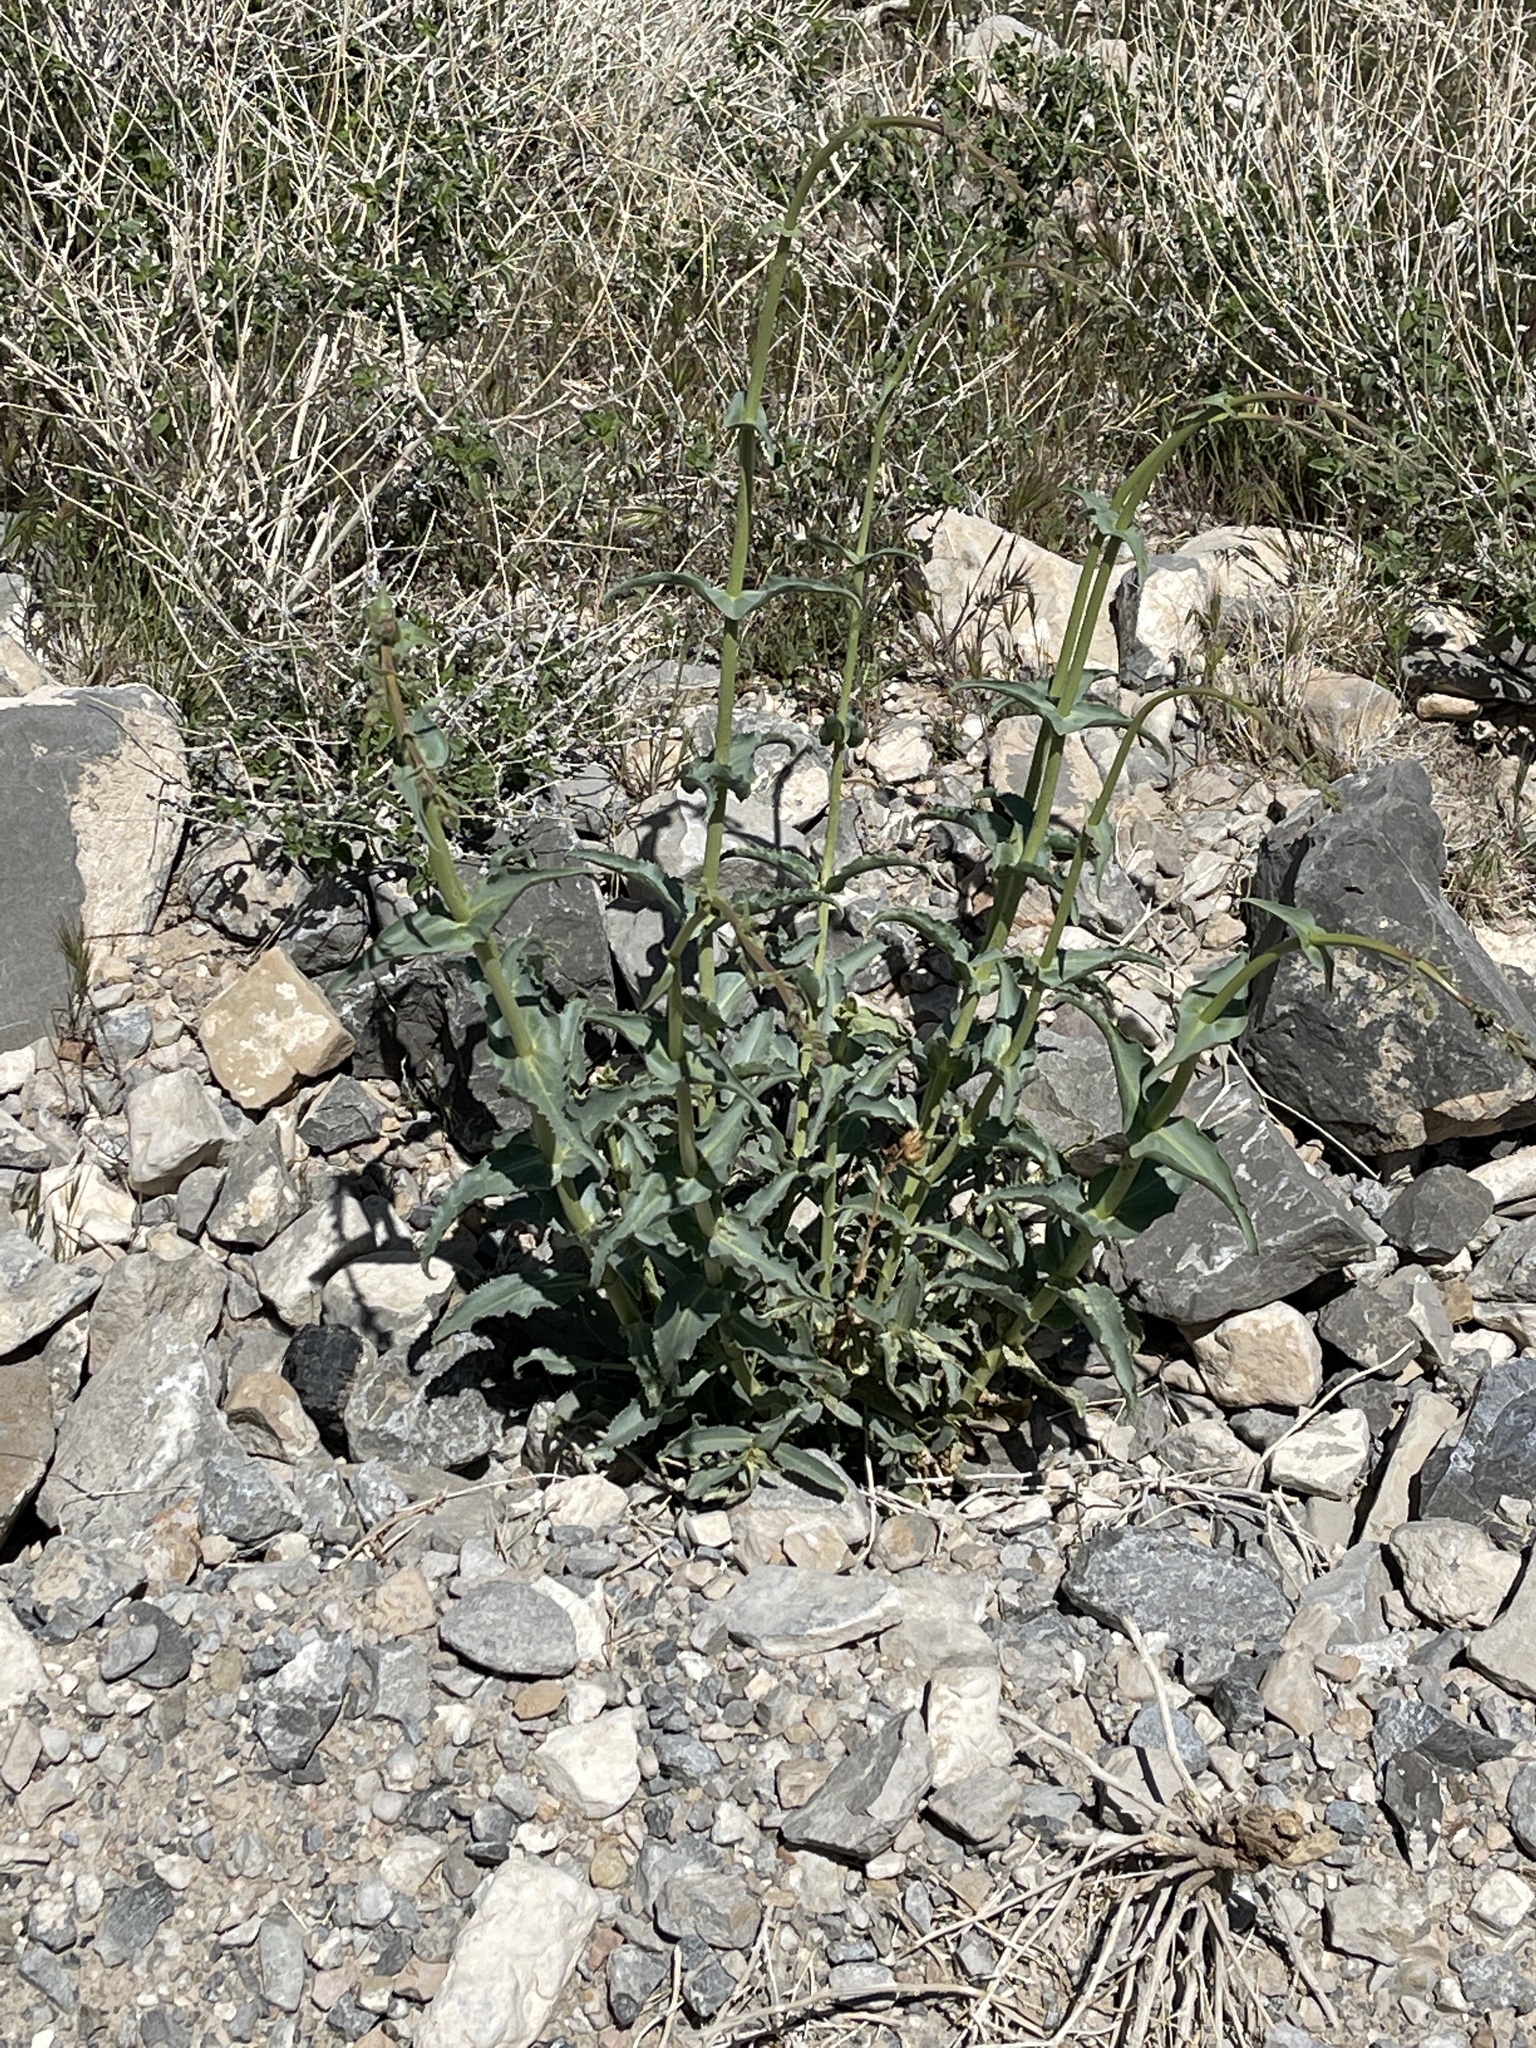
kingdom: Plantae
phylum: Tracheophyta
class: Magnoliopsida
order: Lamiales
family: Plantaginaceae
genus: Penstemon
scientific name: Penstemon bicolor
